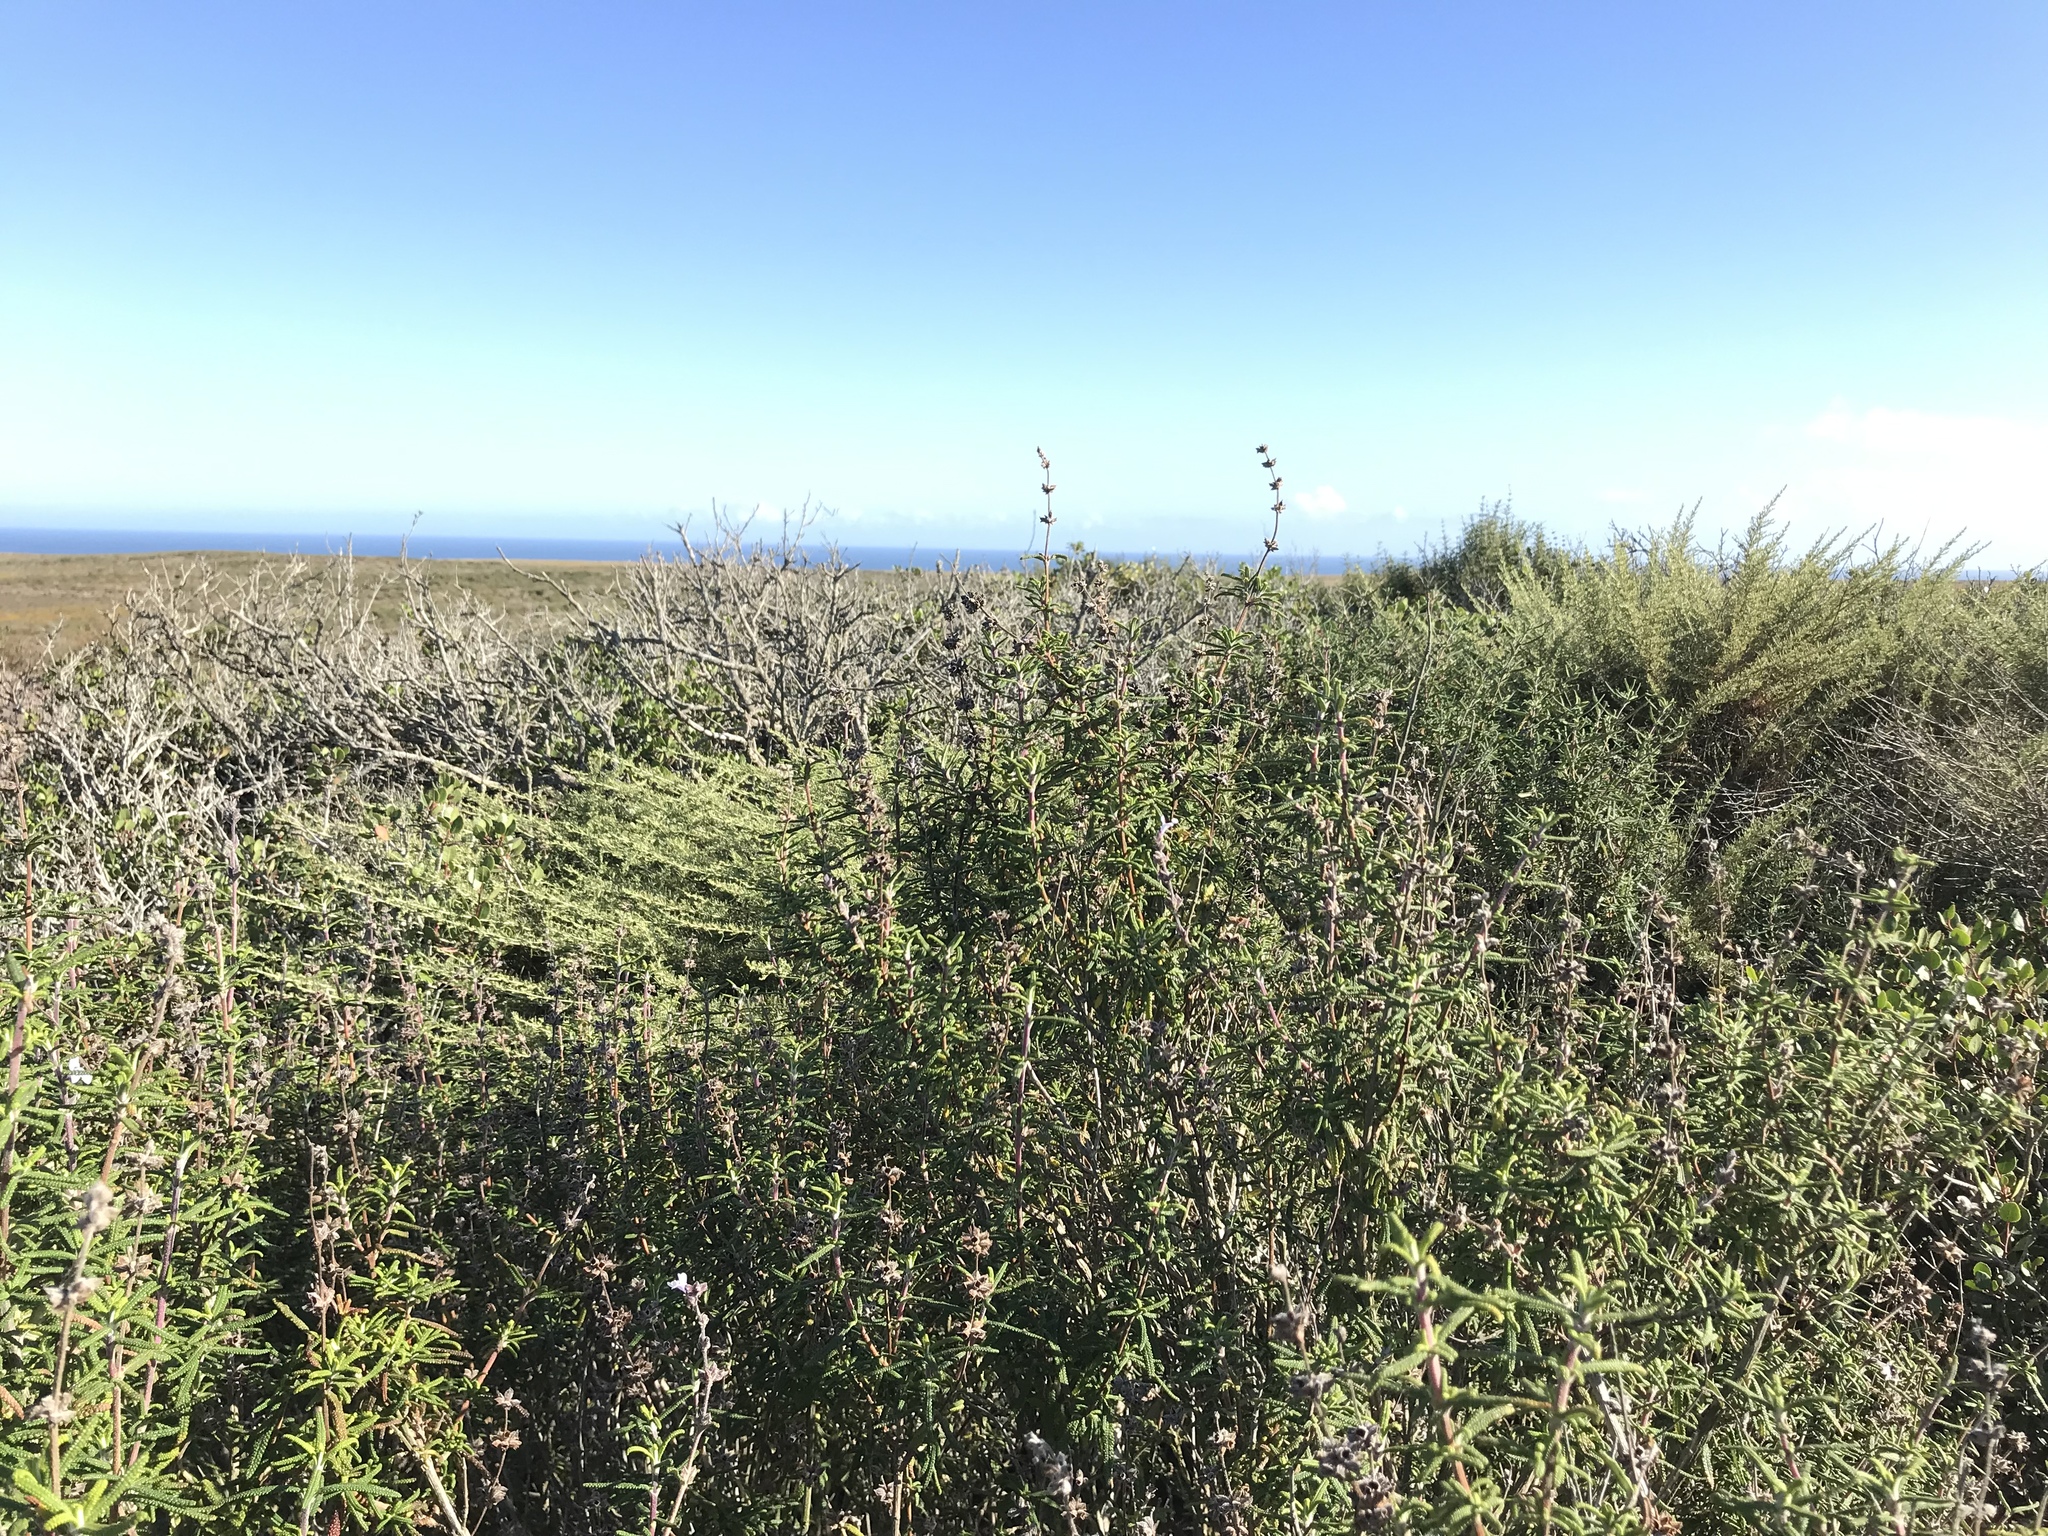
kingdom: Plantae
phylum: Tracheophyta
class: Magnoliopsida
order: Lamiales
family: Lamiaceae
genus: Salvia
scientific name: Salvia brandegeei
